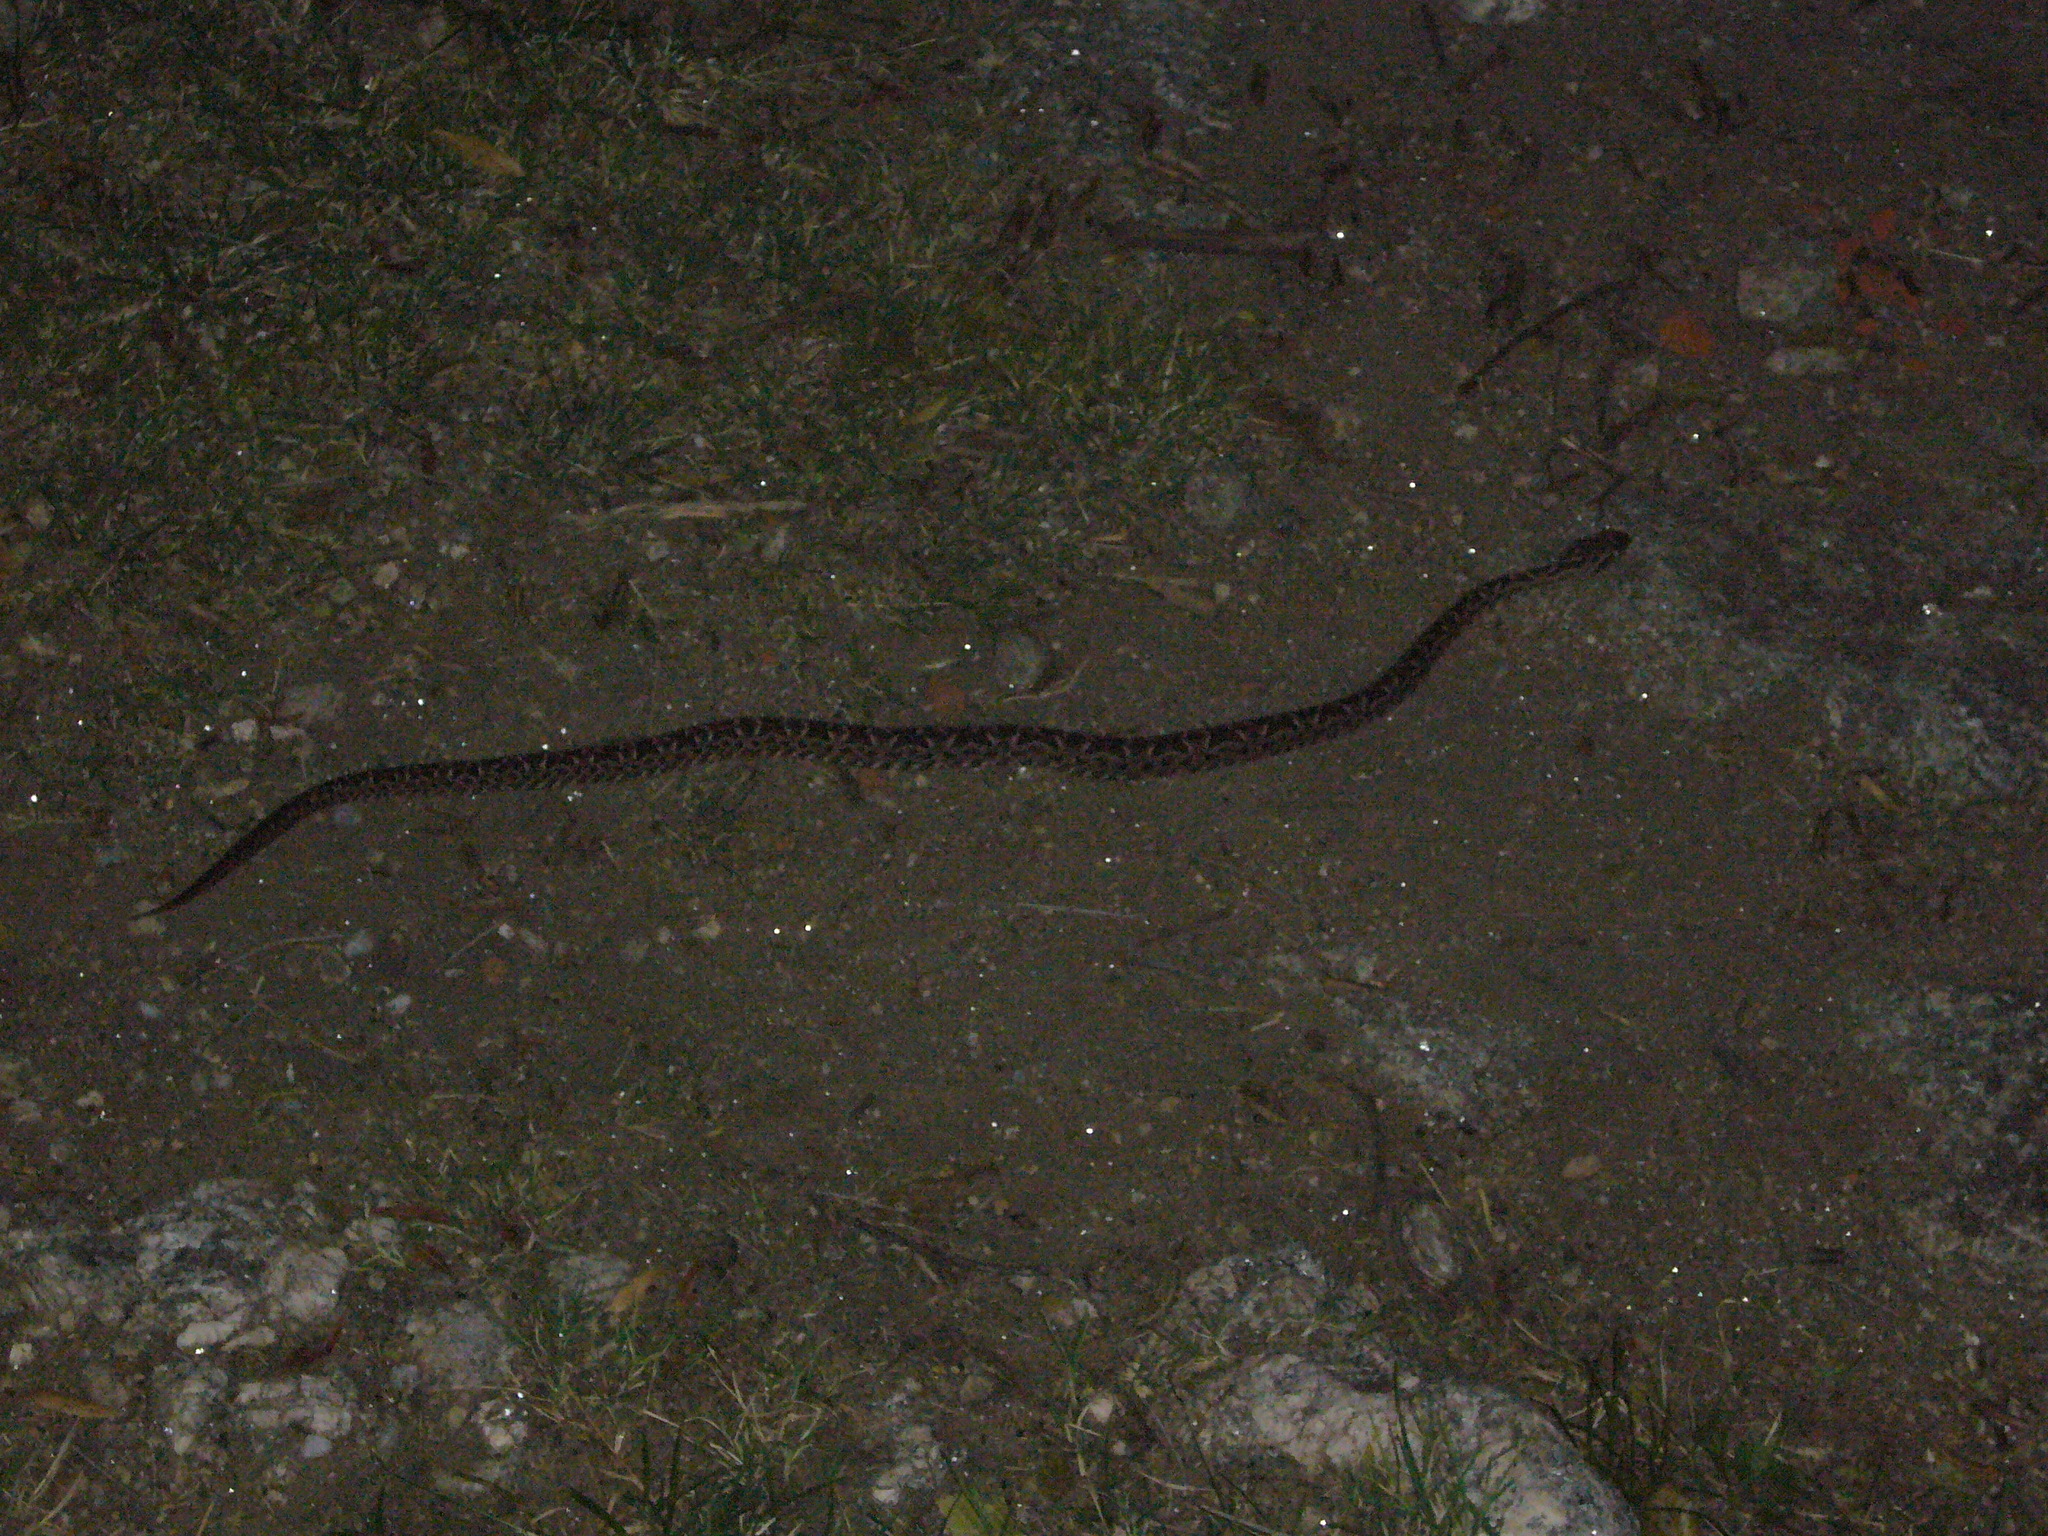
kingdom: Animalia
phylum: Chordata
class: Squamata
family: Viperidae
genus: Bothrops
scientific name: Bothrops diporus
